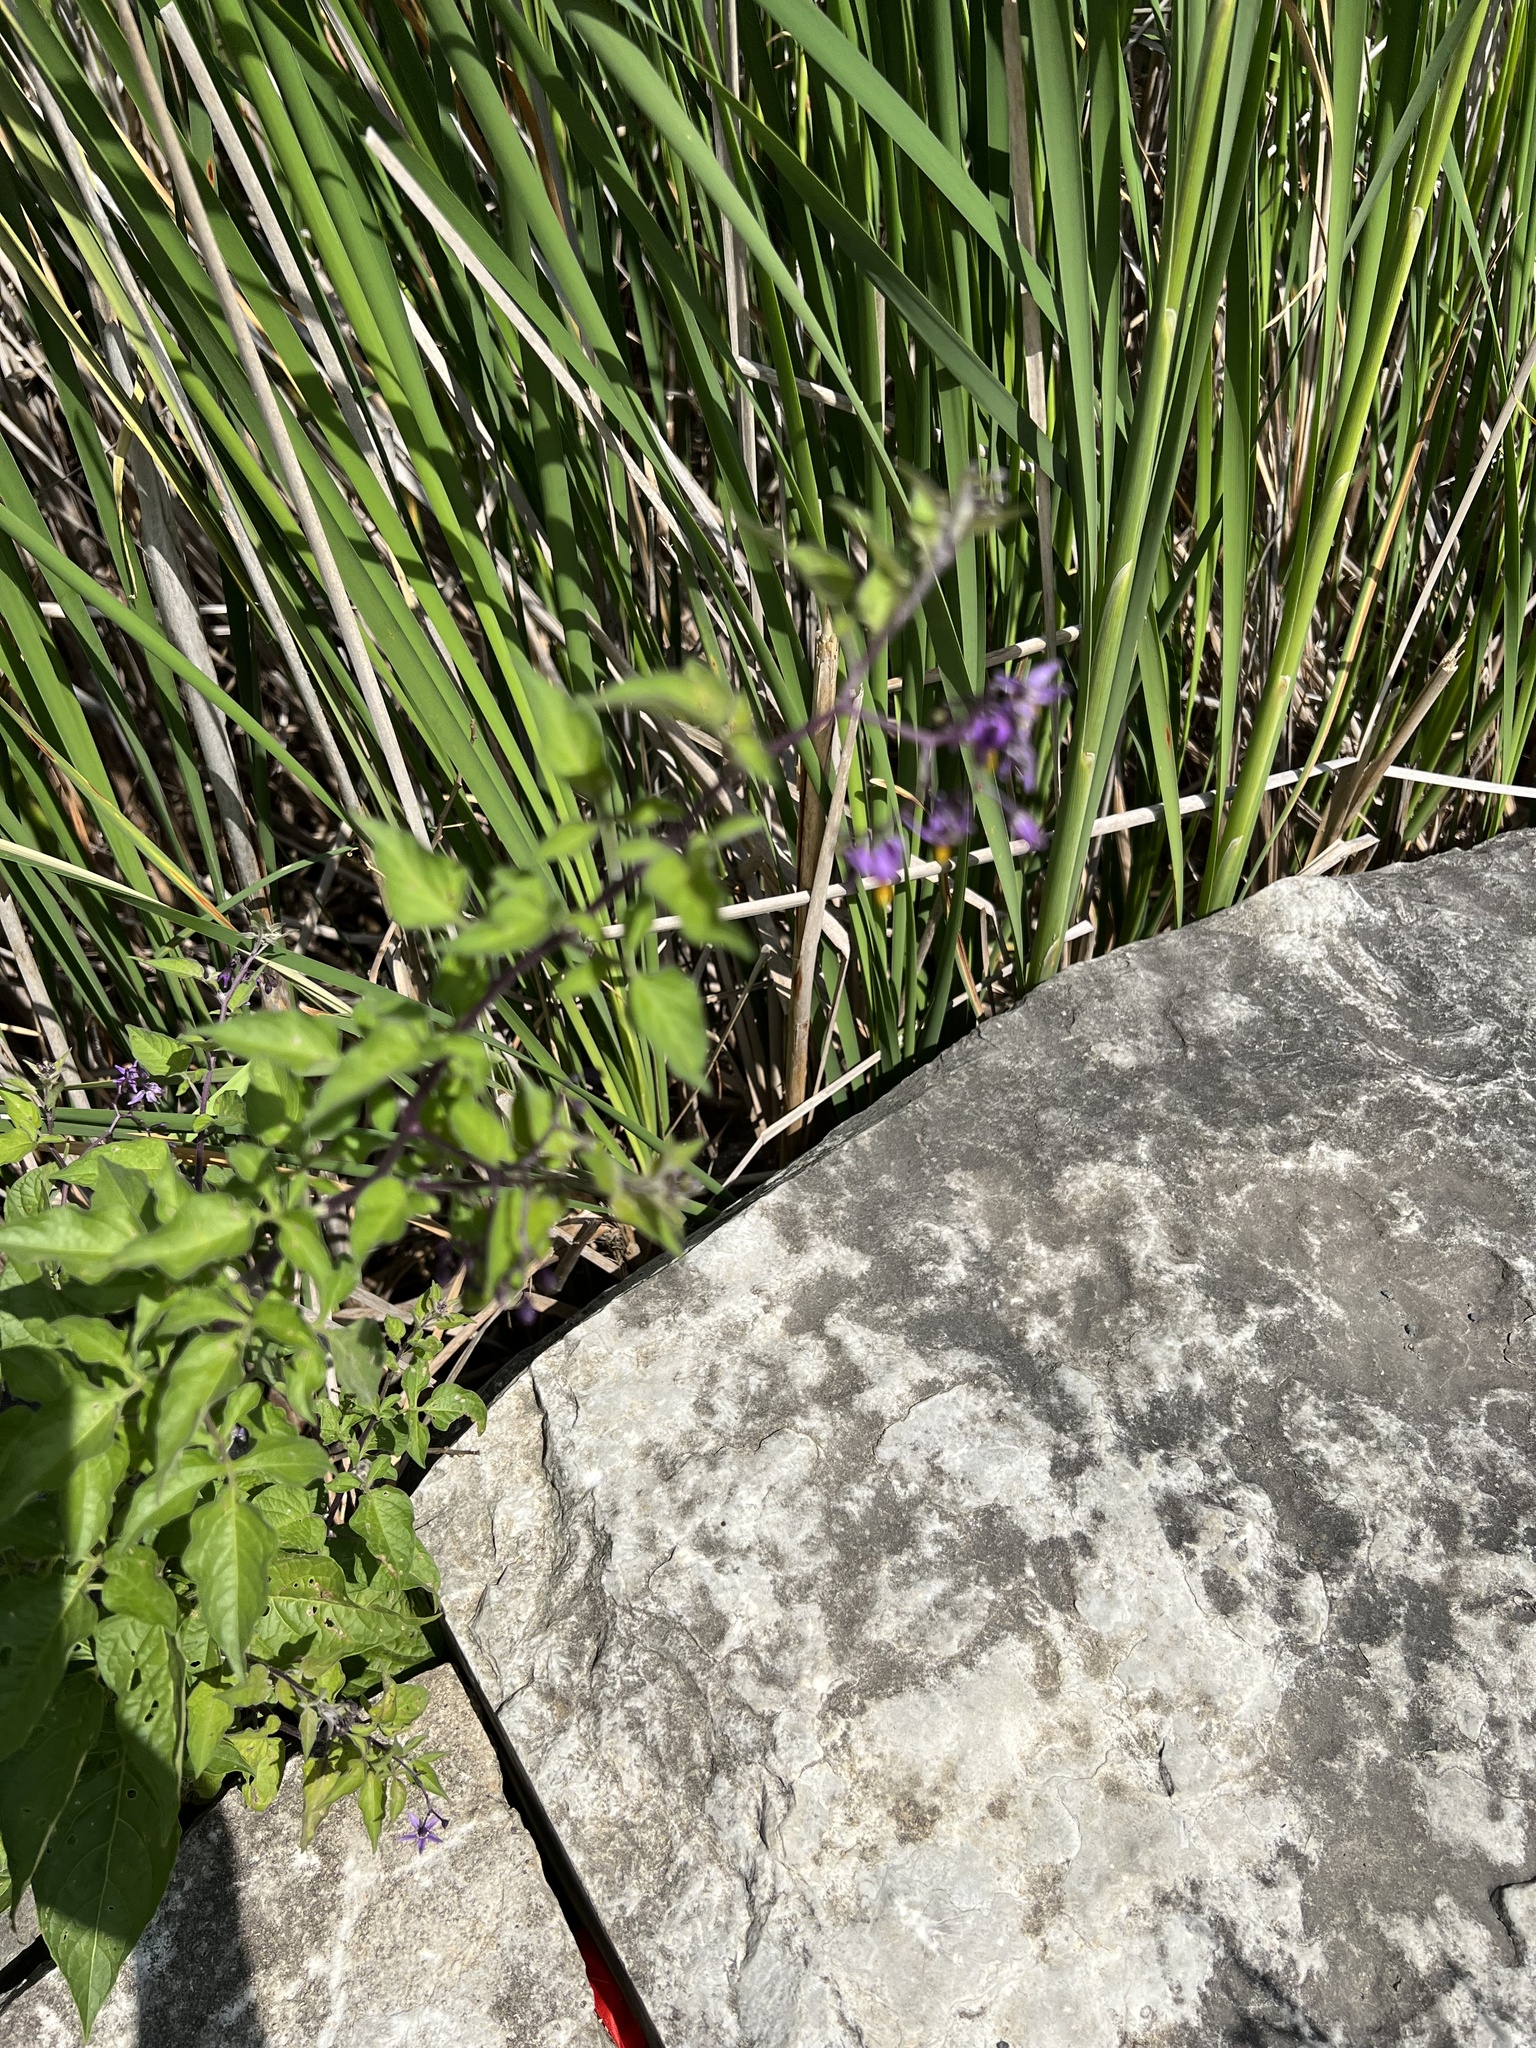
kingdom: Plantae
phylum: Tracheophyta
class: Magnoliopsida
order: Solanales
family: Solanaceae
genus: Solanum
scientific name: Solanum dulcamara
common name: Climbing nightshade
